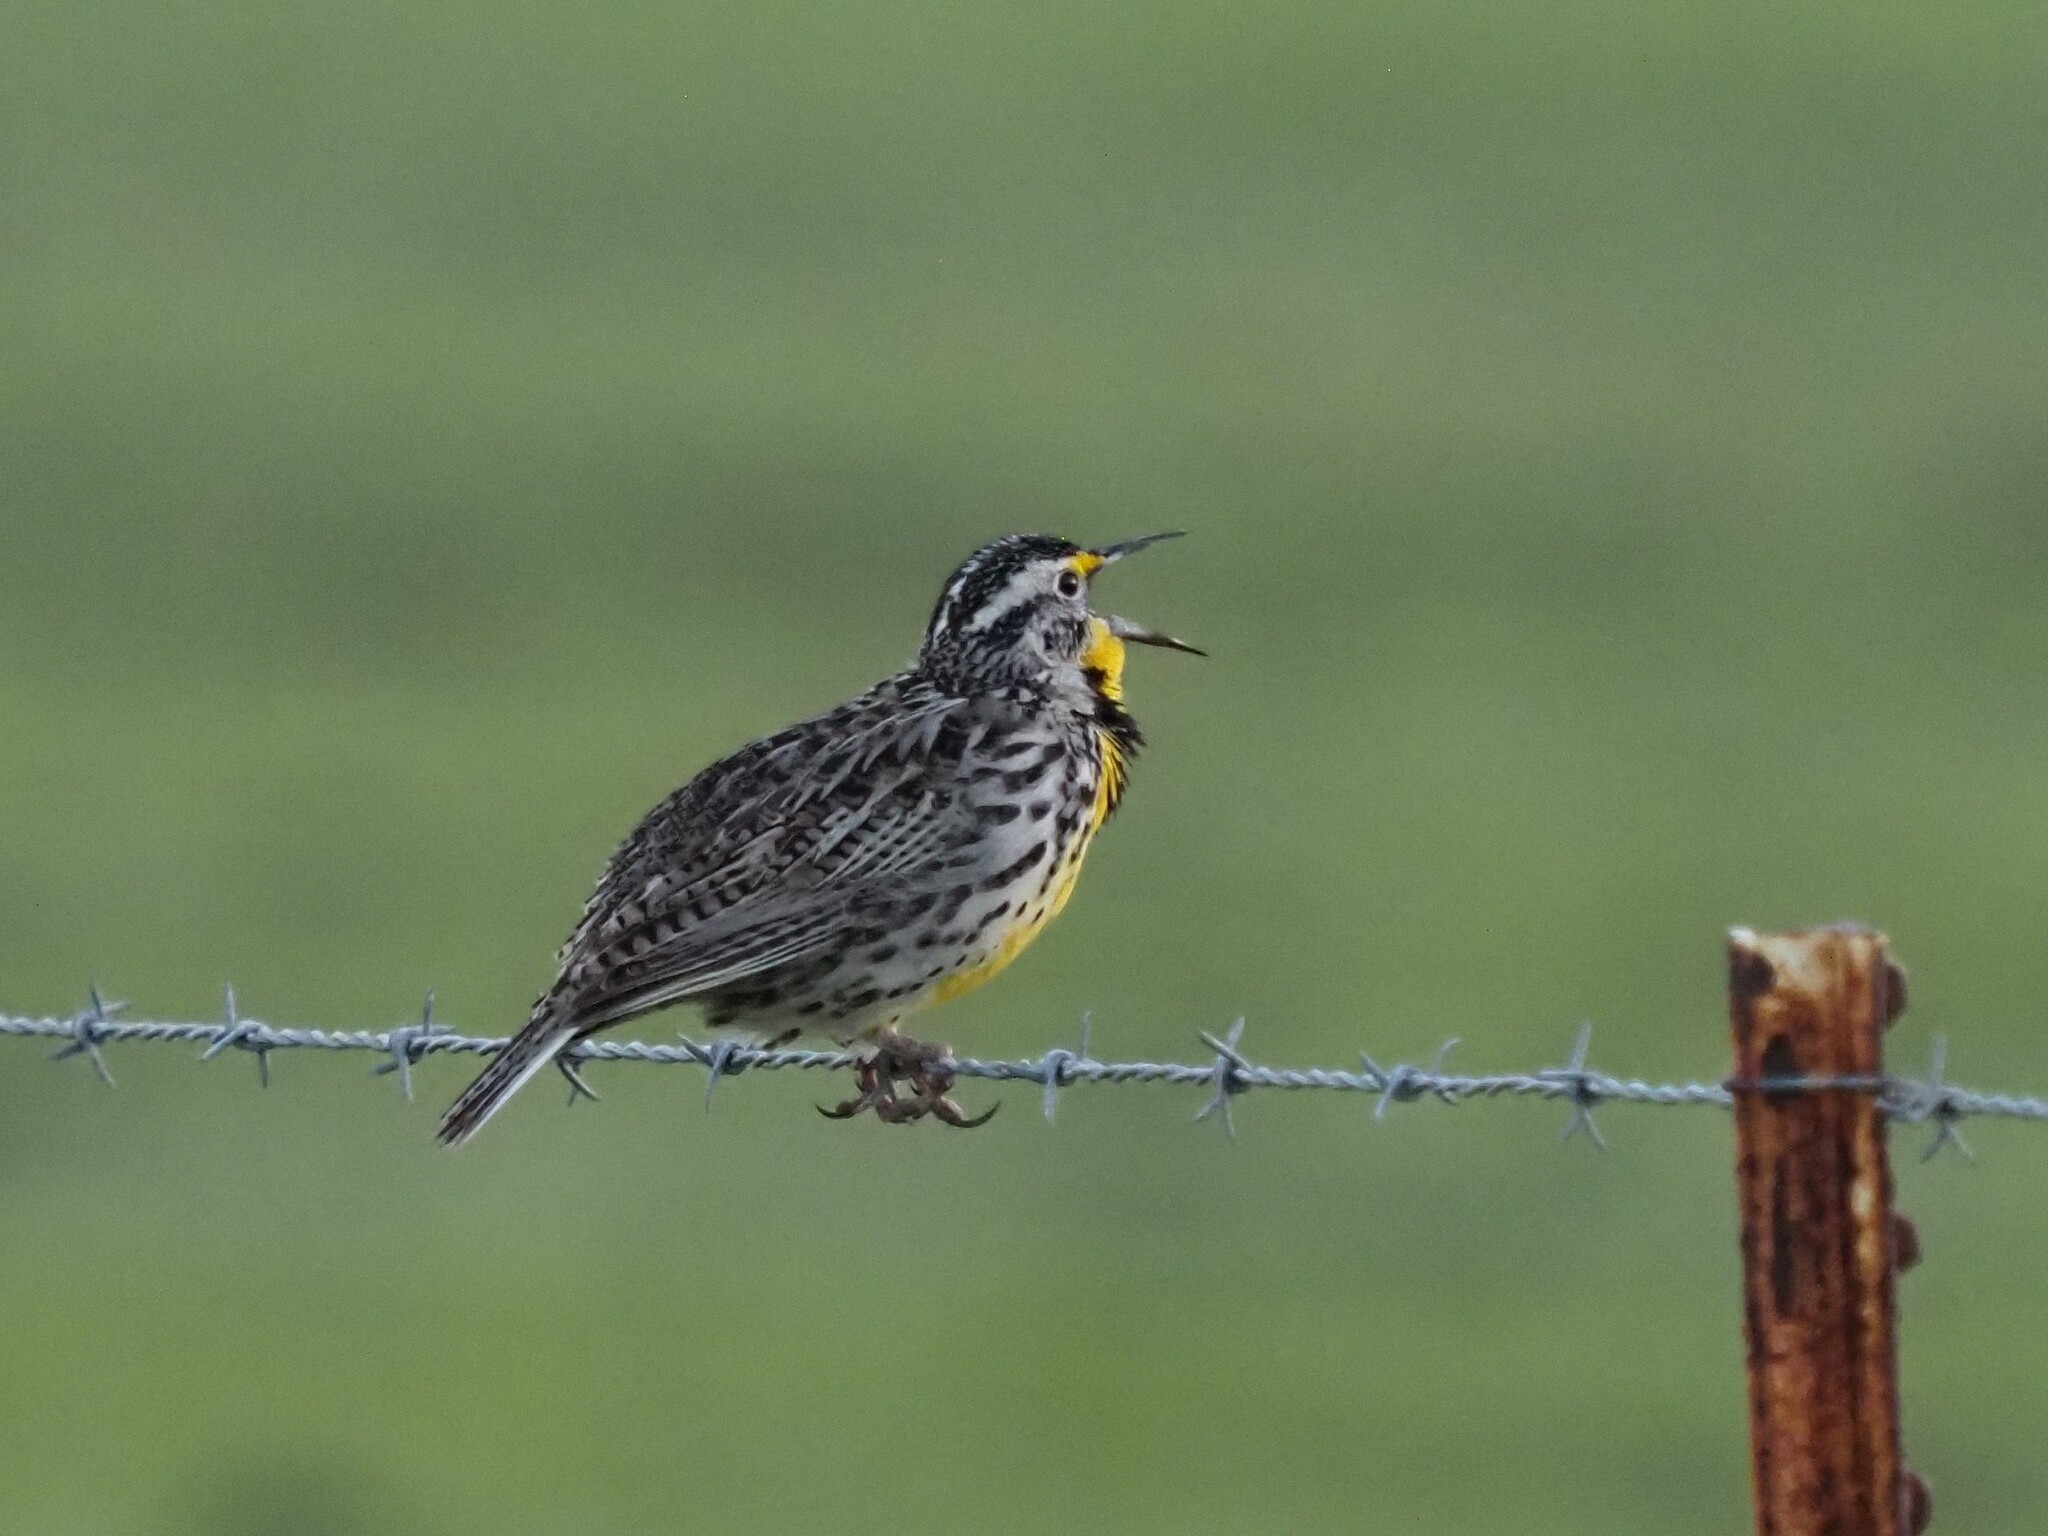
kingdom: Animalia
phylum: Chordata
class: Aves
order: Passeriformes
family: Icteridae
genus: Sturnella
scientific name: Sturnella neglecta
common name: Western meadowlark
